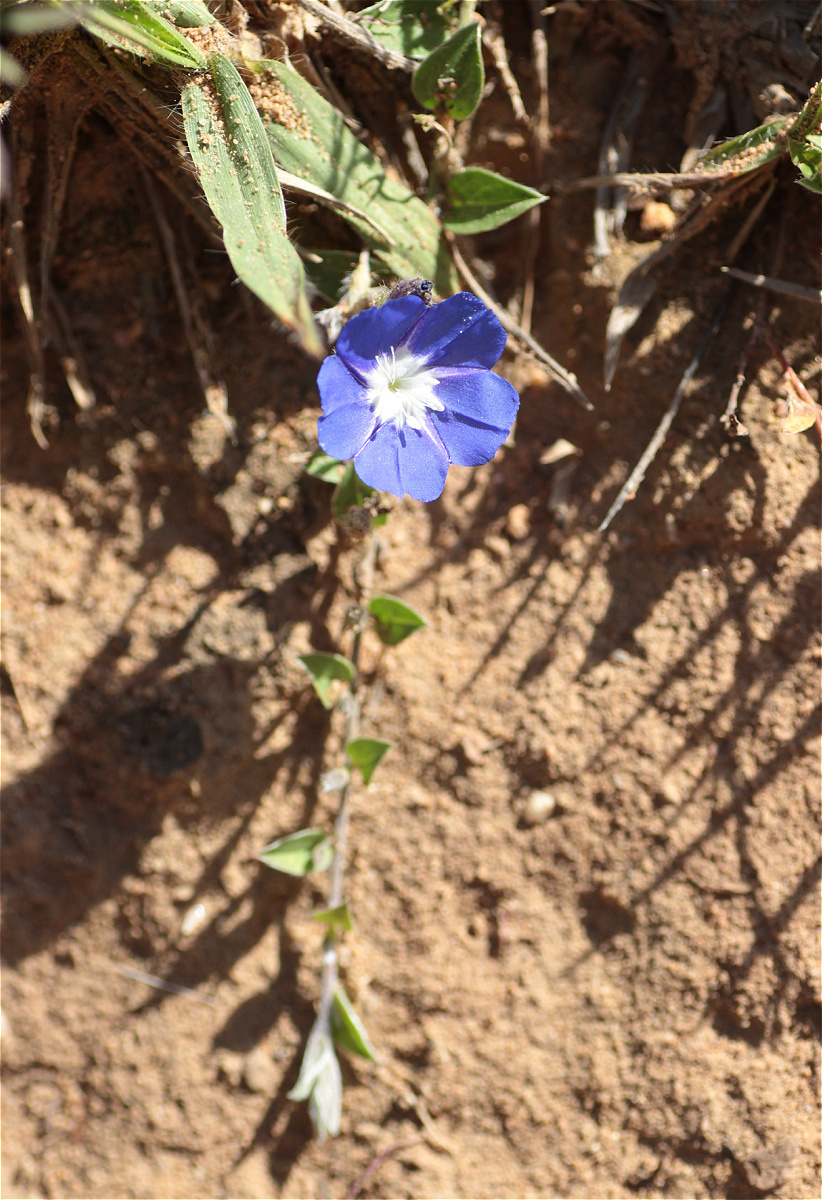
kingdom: Plantae
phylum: Tracheophyta
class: Magnoliopsida
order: Solanales
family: Convolvulaceae
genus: Evolvulus
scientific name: Evolvulus bogotensis
